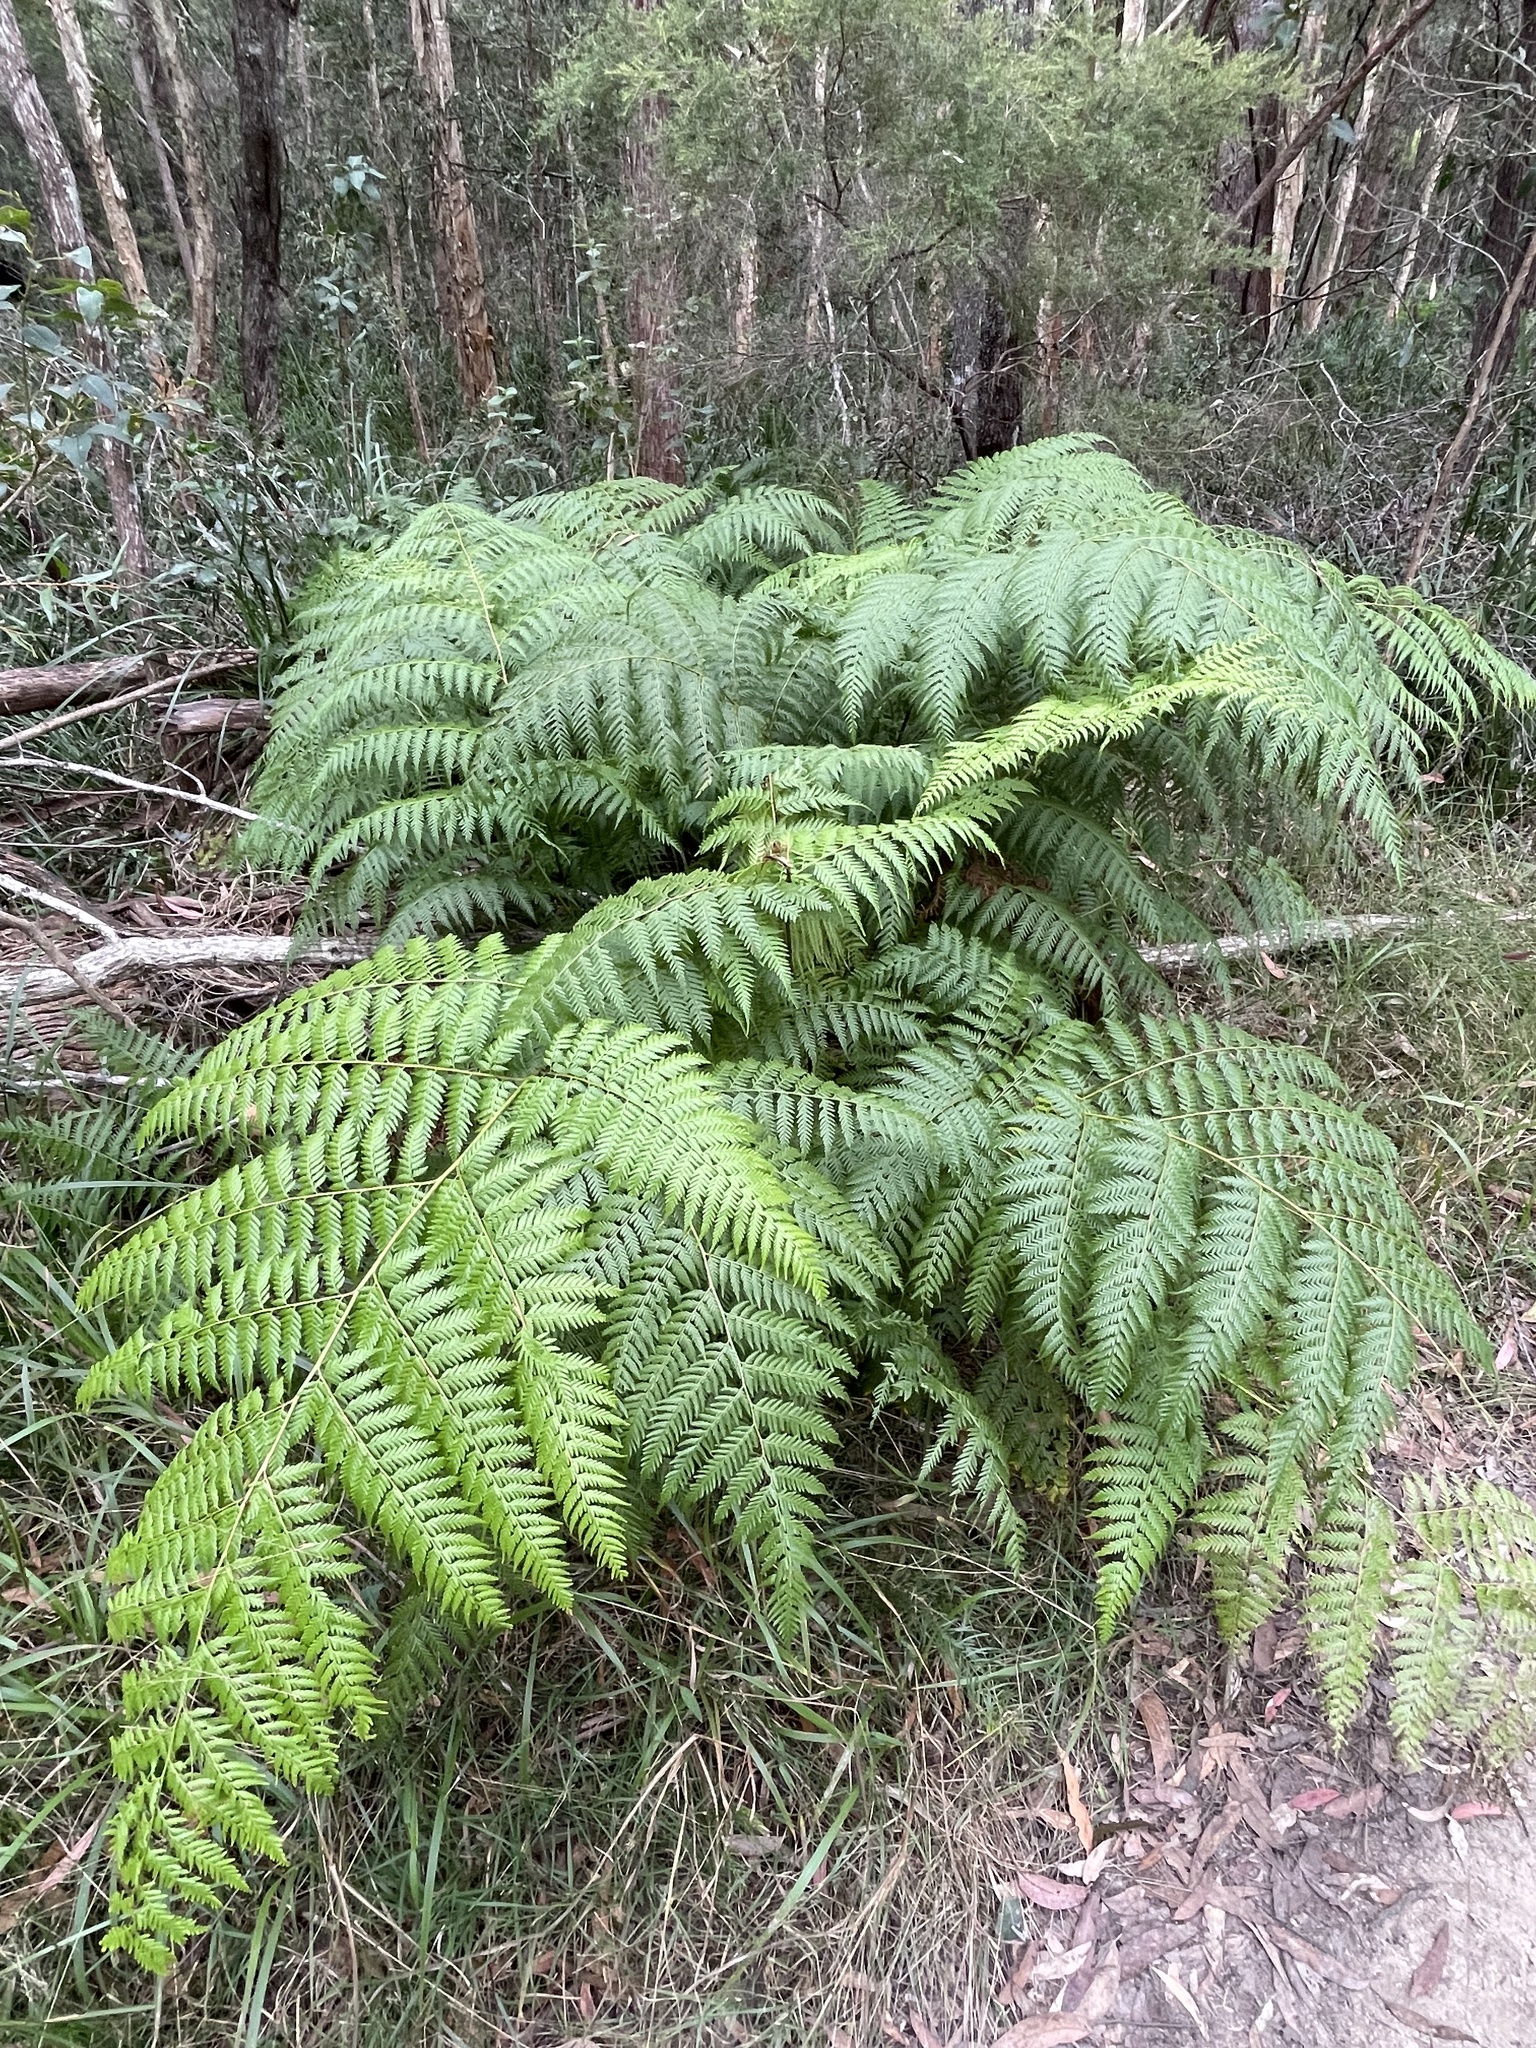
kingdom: Plantae
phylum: Tracheophyta
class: Polypodiopsida
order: Cyatheales
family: Dicksoniaceae
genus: Calochlaena
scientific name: Calochlaena dubia
